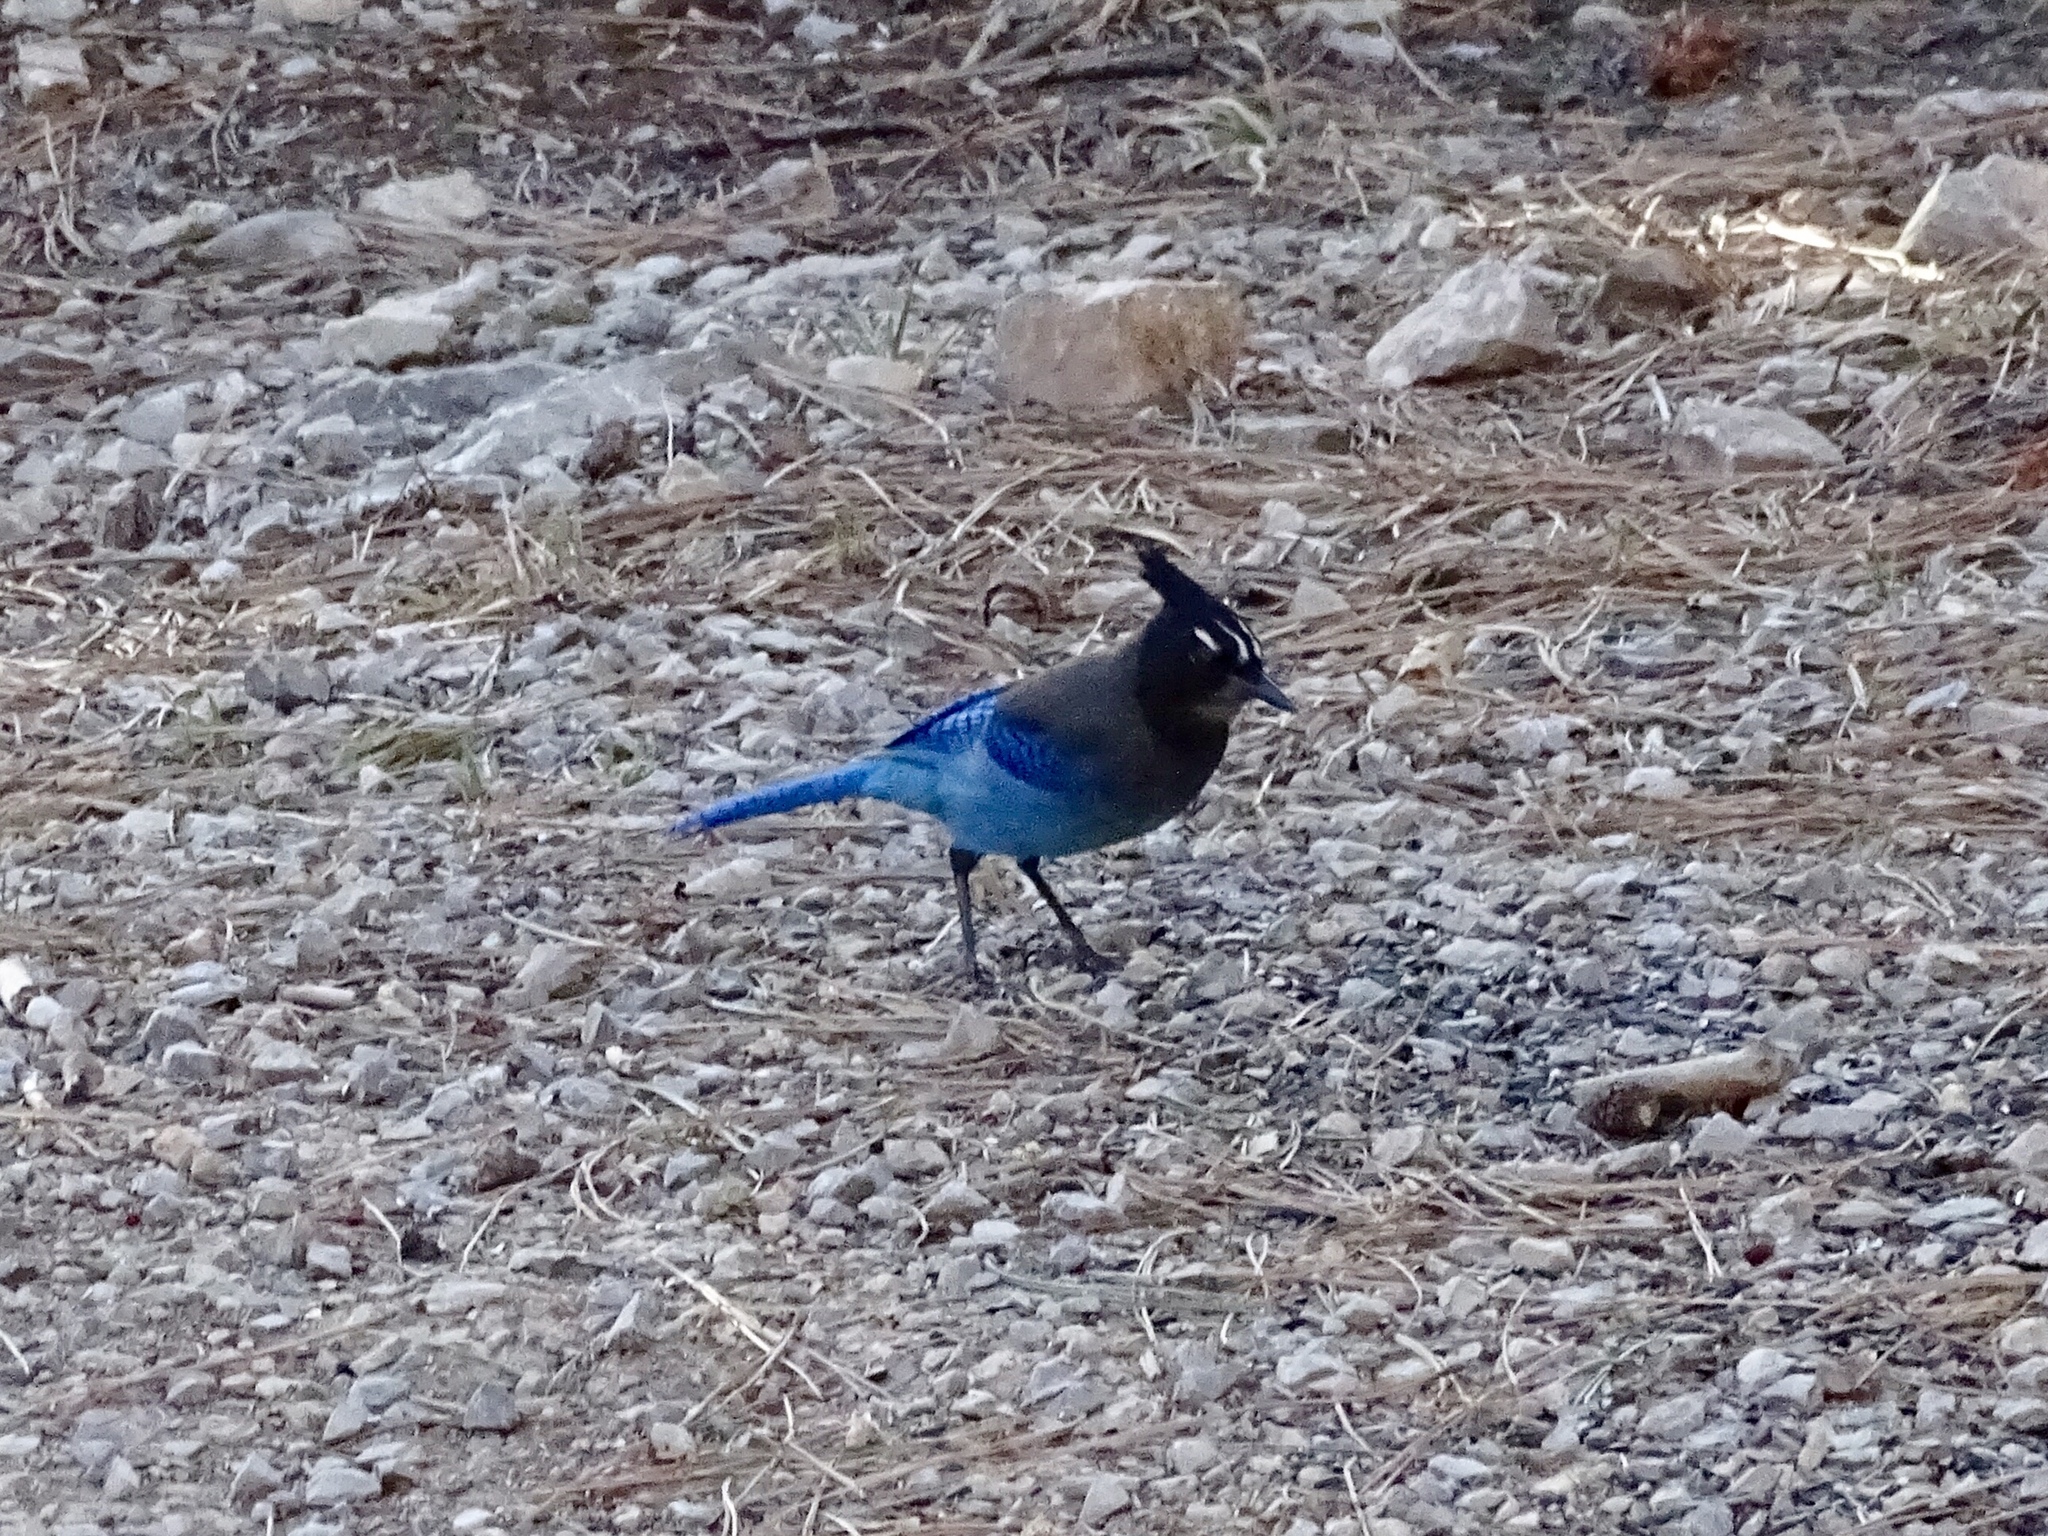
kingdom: Animalia
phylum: Chordata
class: Aves
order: Passeriformes
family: Corvidae
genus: Cyanocitta
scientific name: Cyanocitta stelleri
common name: Steller's jay
